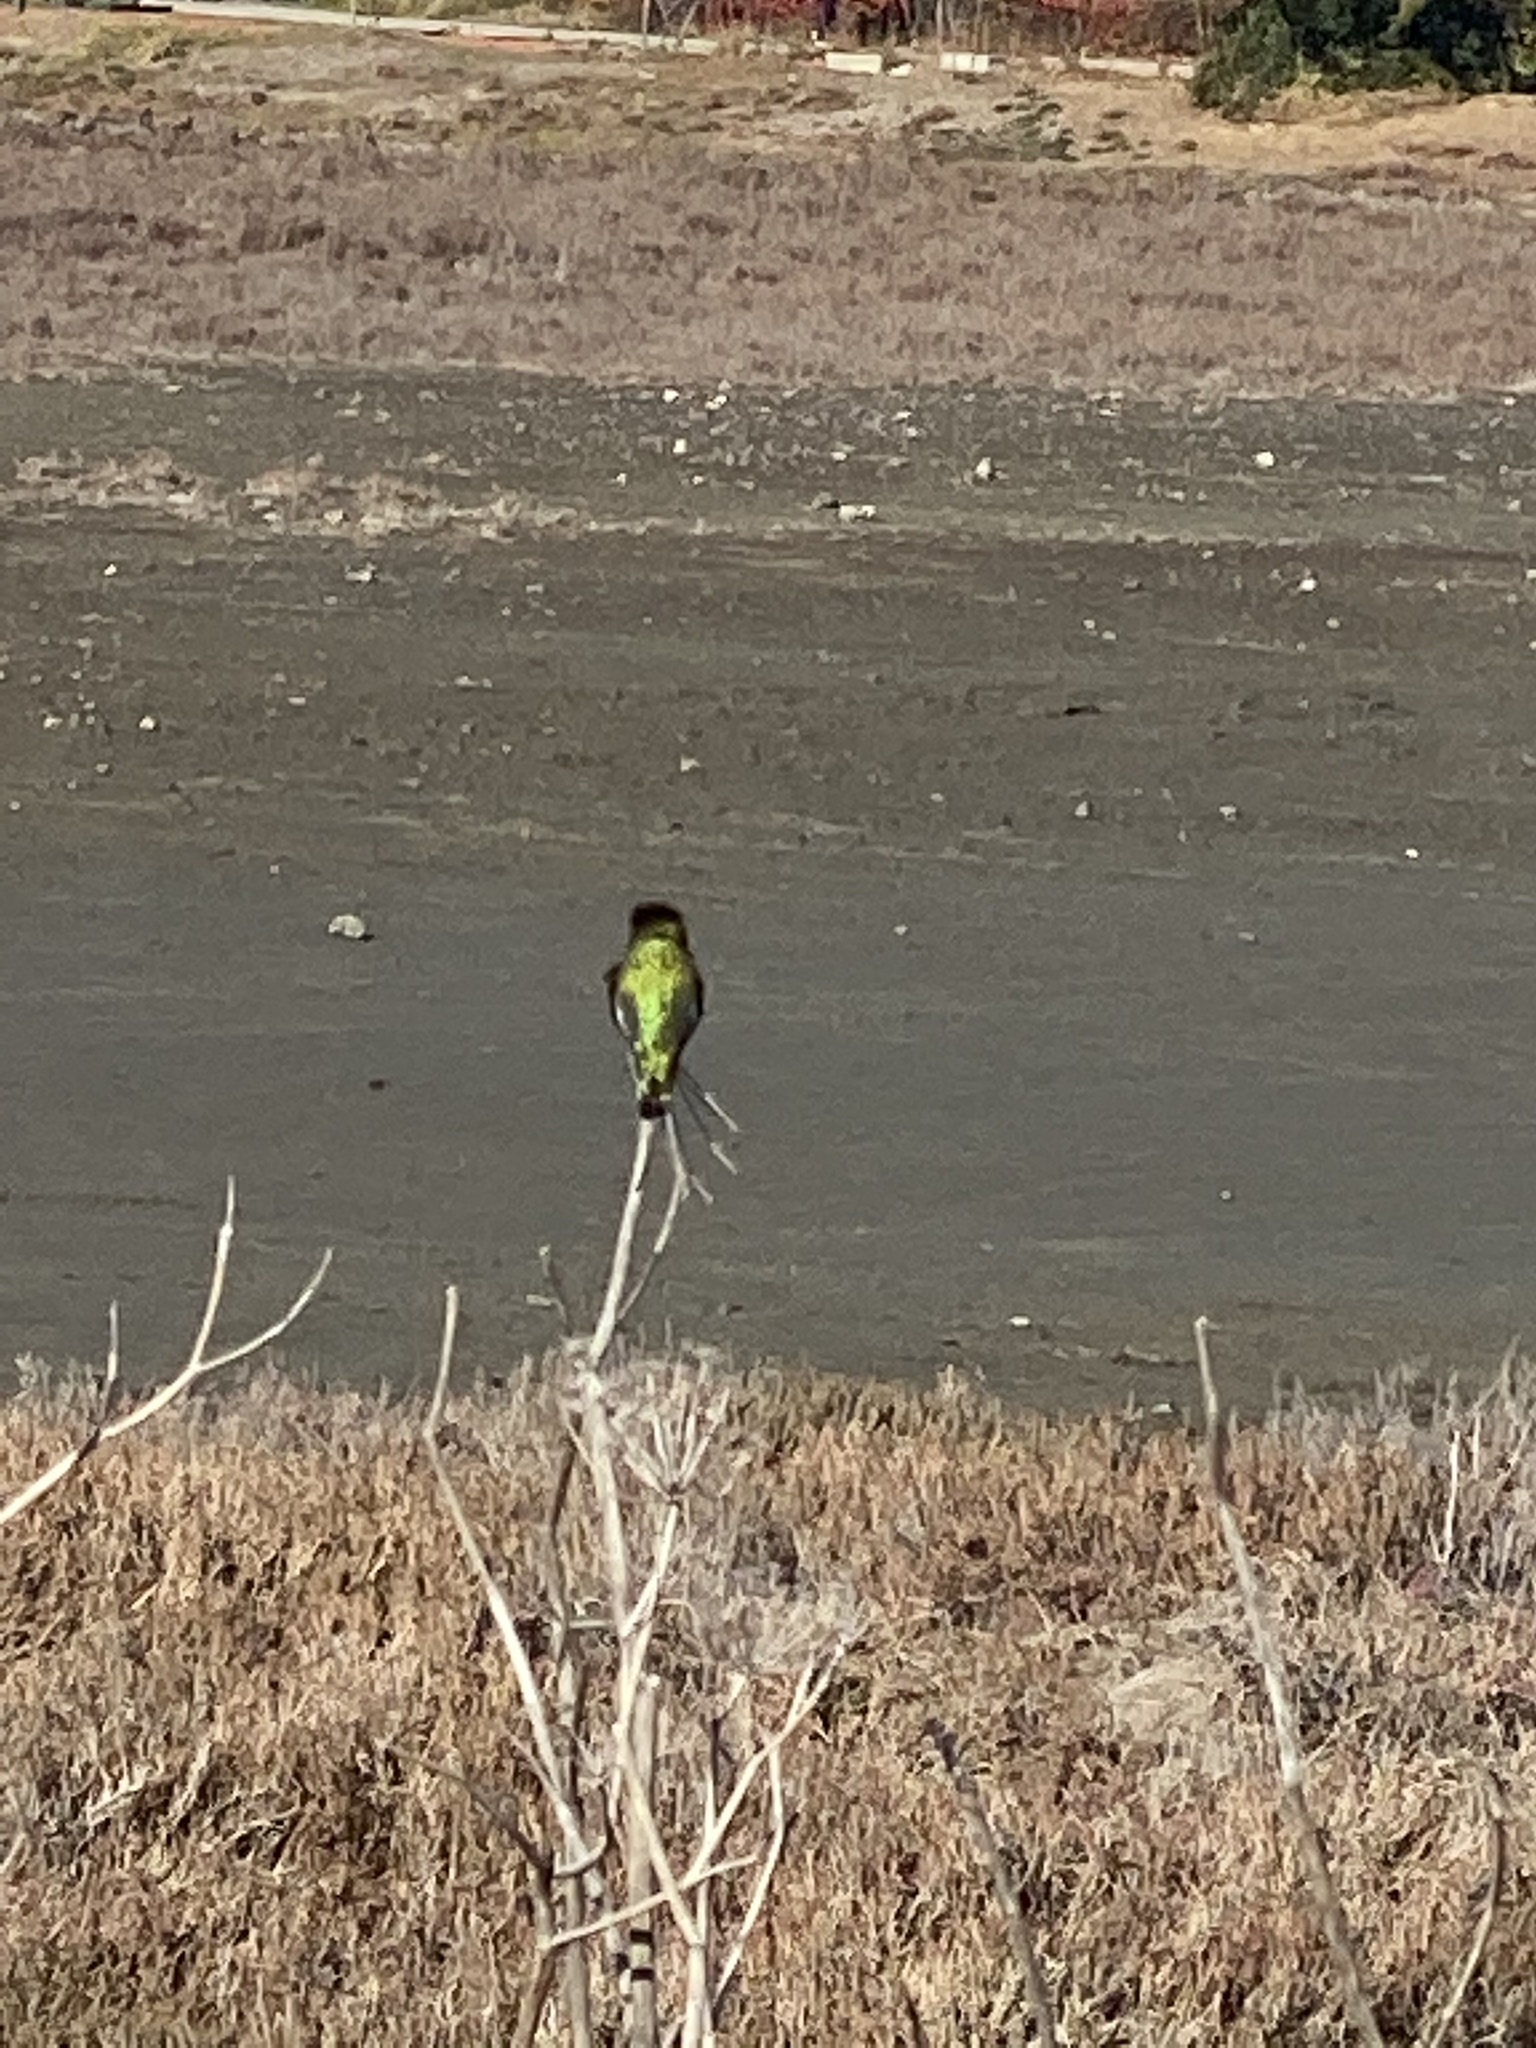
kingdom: Animalia
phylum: Chordata
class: Aves
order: Apodiformes
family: Trochilidae
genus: Calypte
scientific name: Calypte anna
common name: Anna's hummingbird
